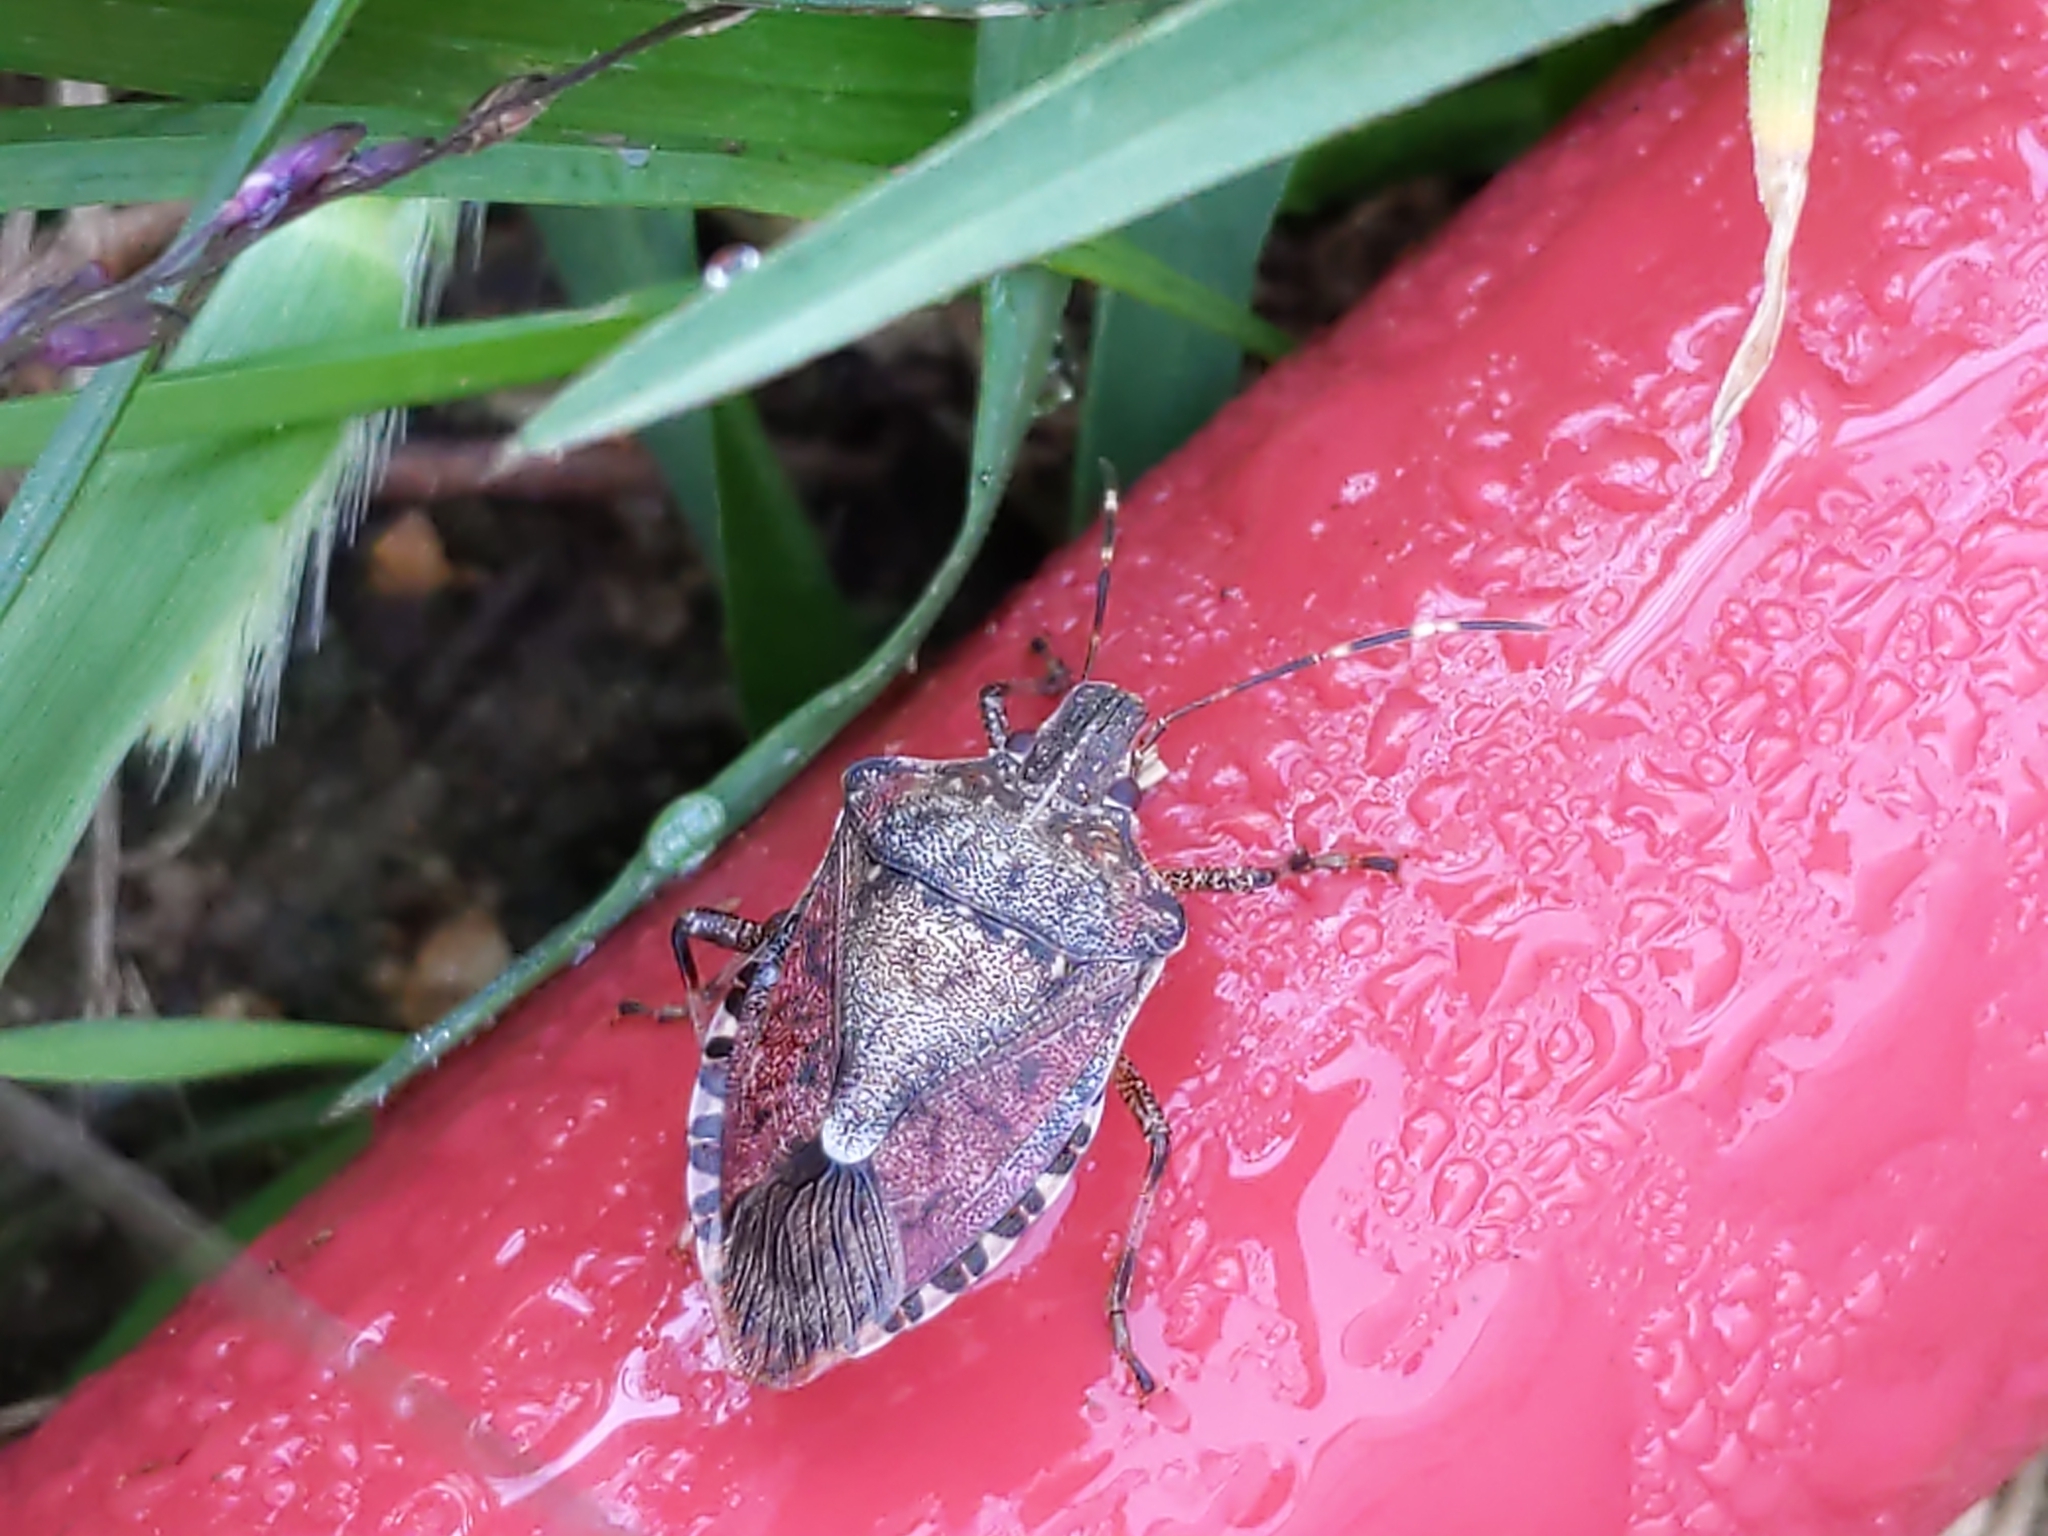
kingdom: Animalia
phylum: Arthropoda
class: Insecta
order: Hemiptera
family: Pentatomidae
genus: Halyomorpha
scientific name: Halyomorpha halys
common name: Brown marmorated stink bug
